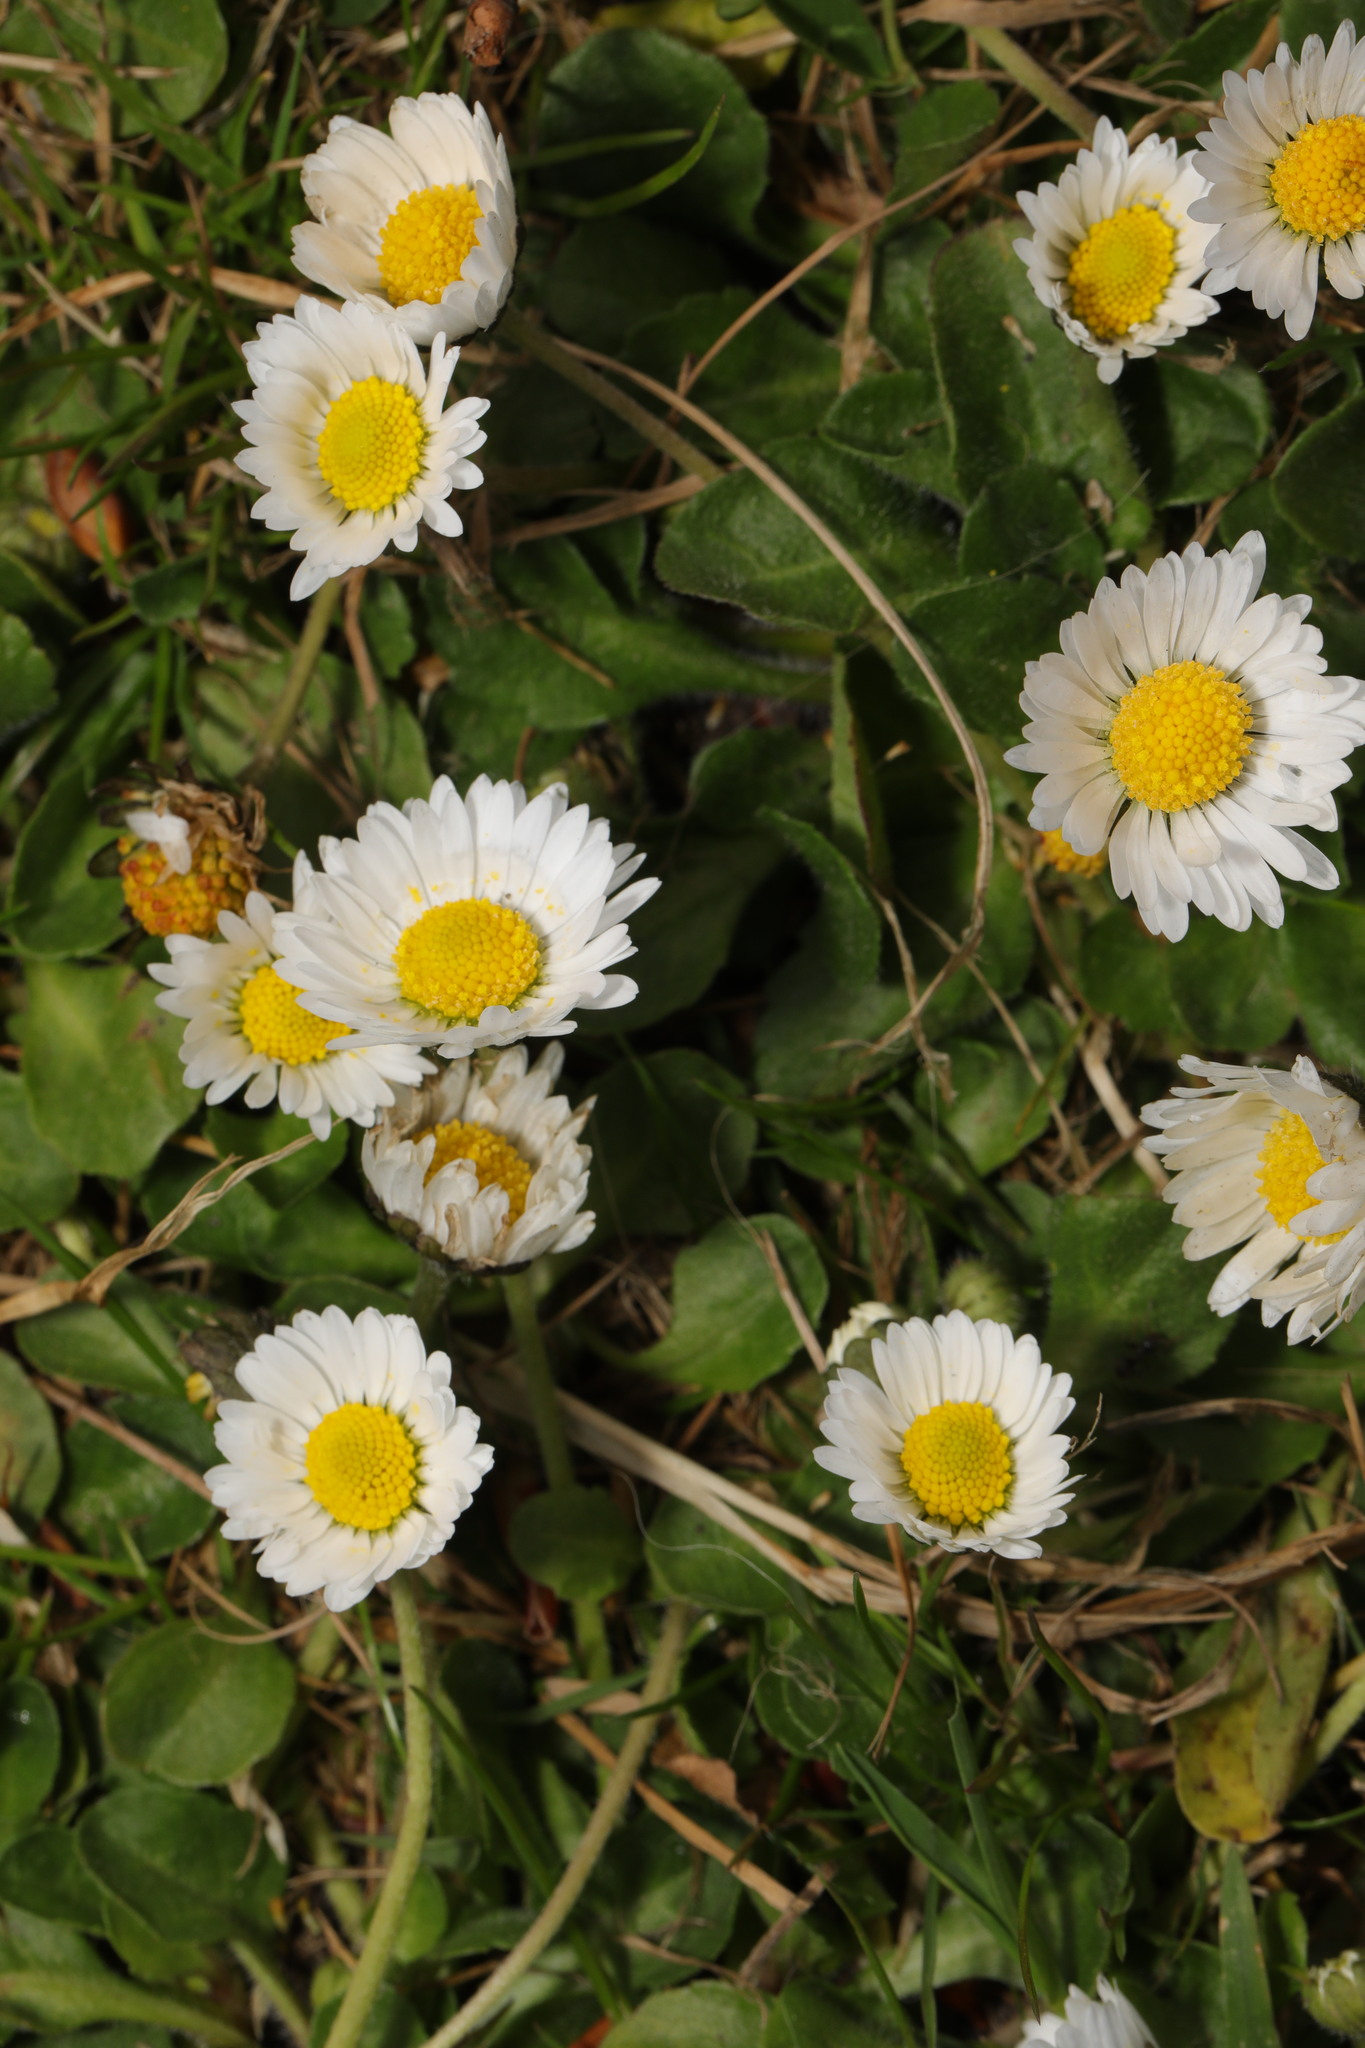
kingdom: Plantae
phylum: Tracheophyta
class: Magnoliopsida
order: Asterales
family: Asteraceae
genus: Bellis
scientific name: Bellis perennis
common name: Lawndaisy
